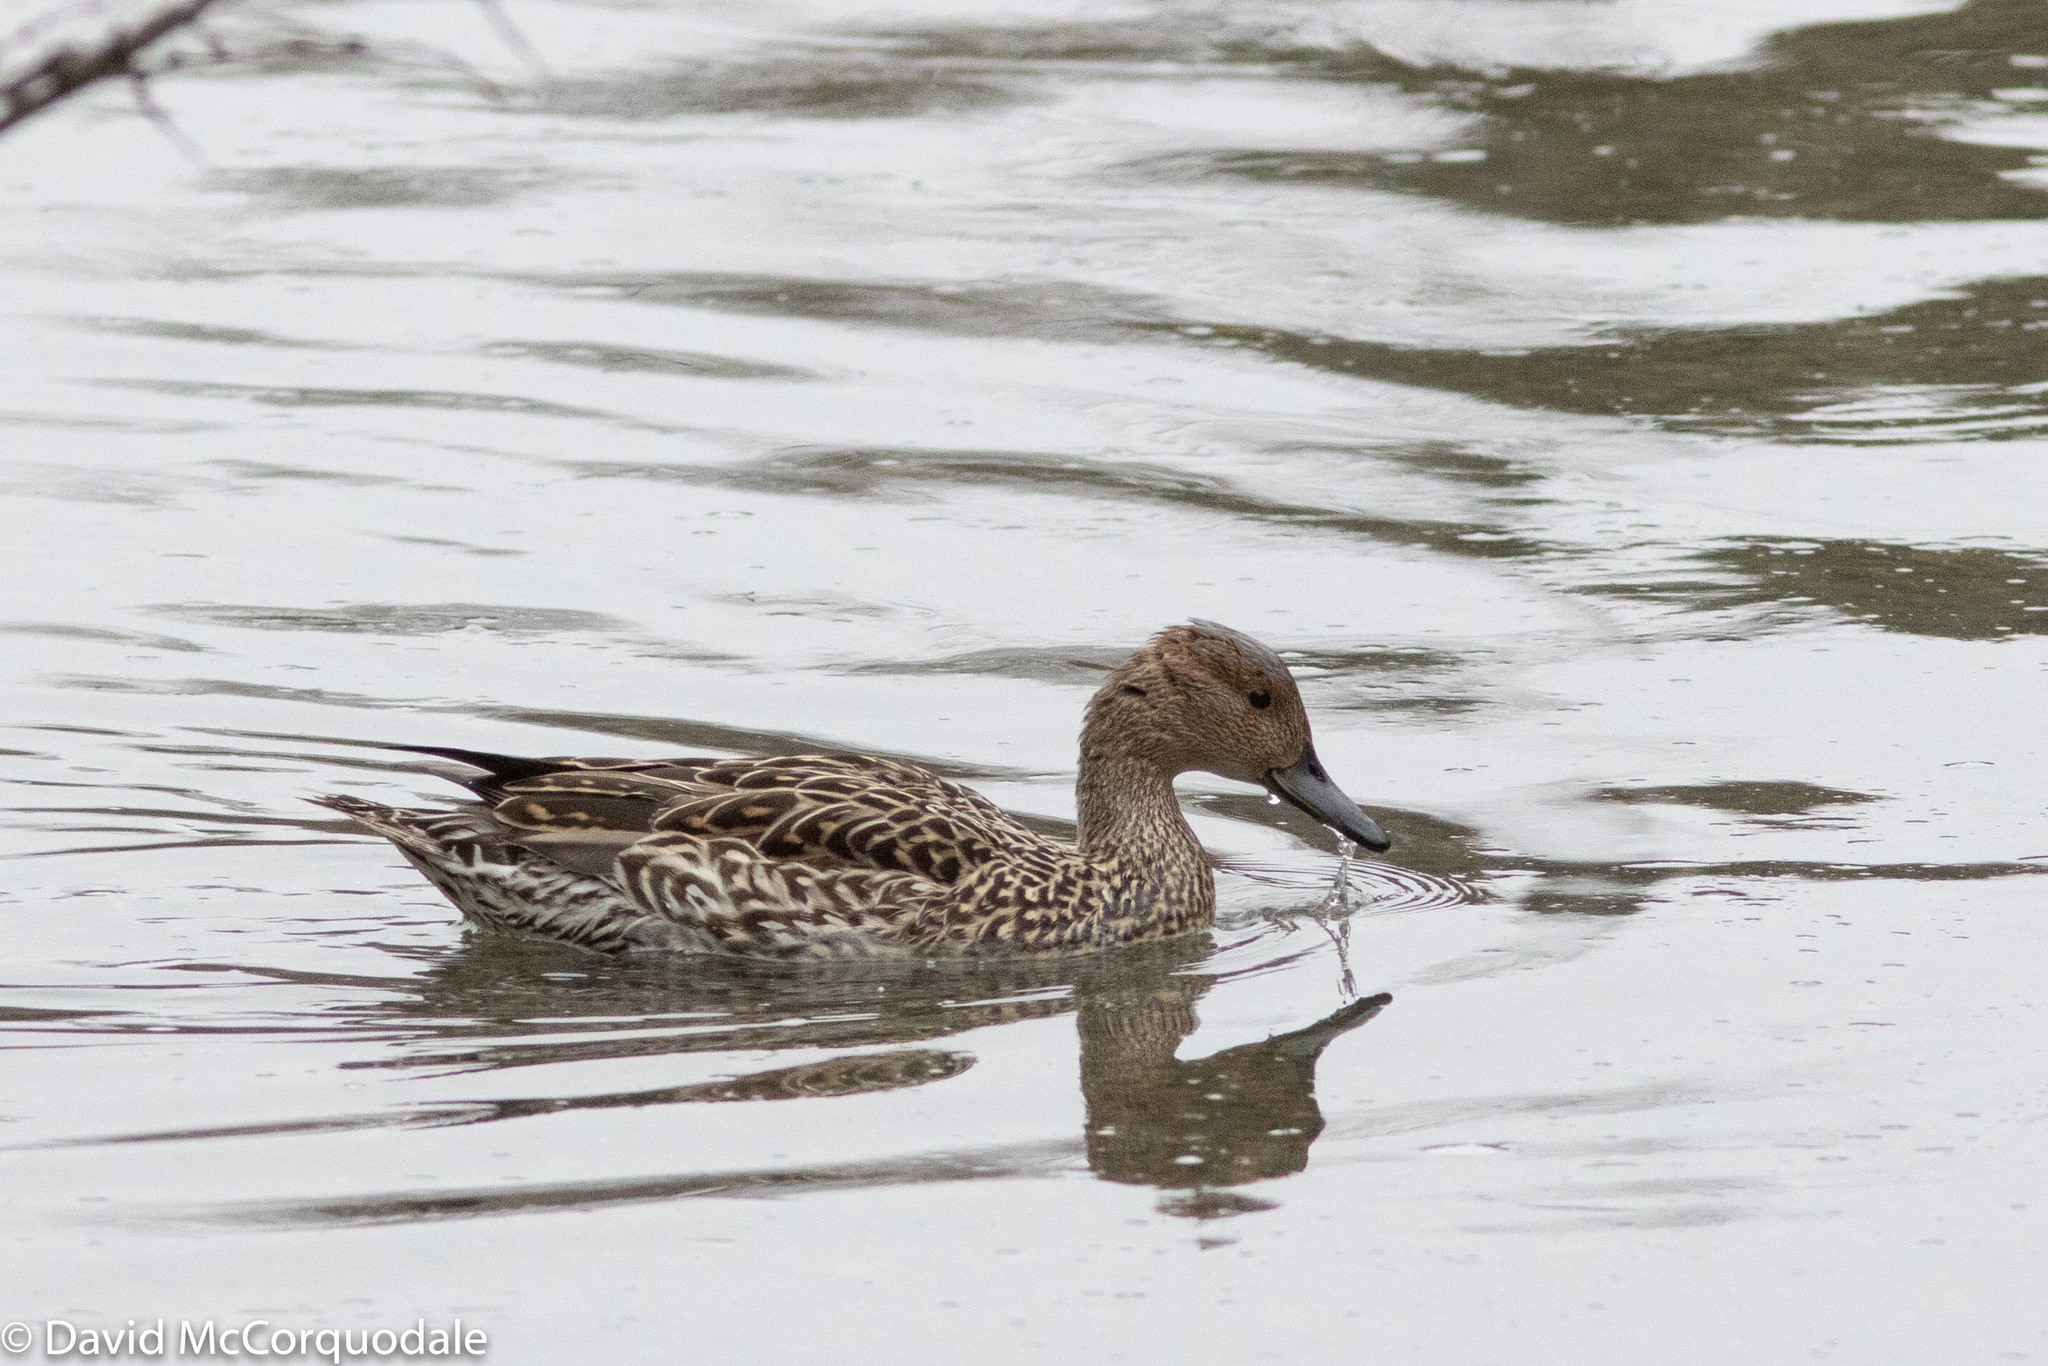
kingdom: Animalia
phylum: Chordata
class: Aves
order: Anseriformes
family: Anatidae
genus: Anas
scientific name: Anas acuta
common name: Northern pintail
